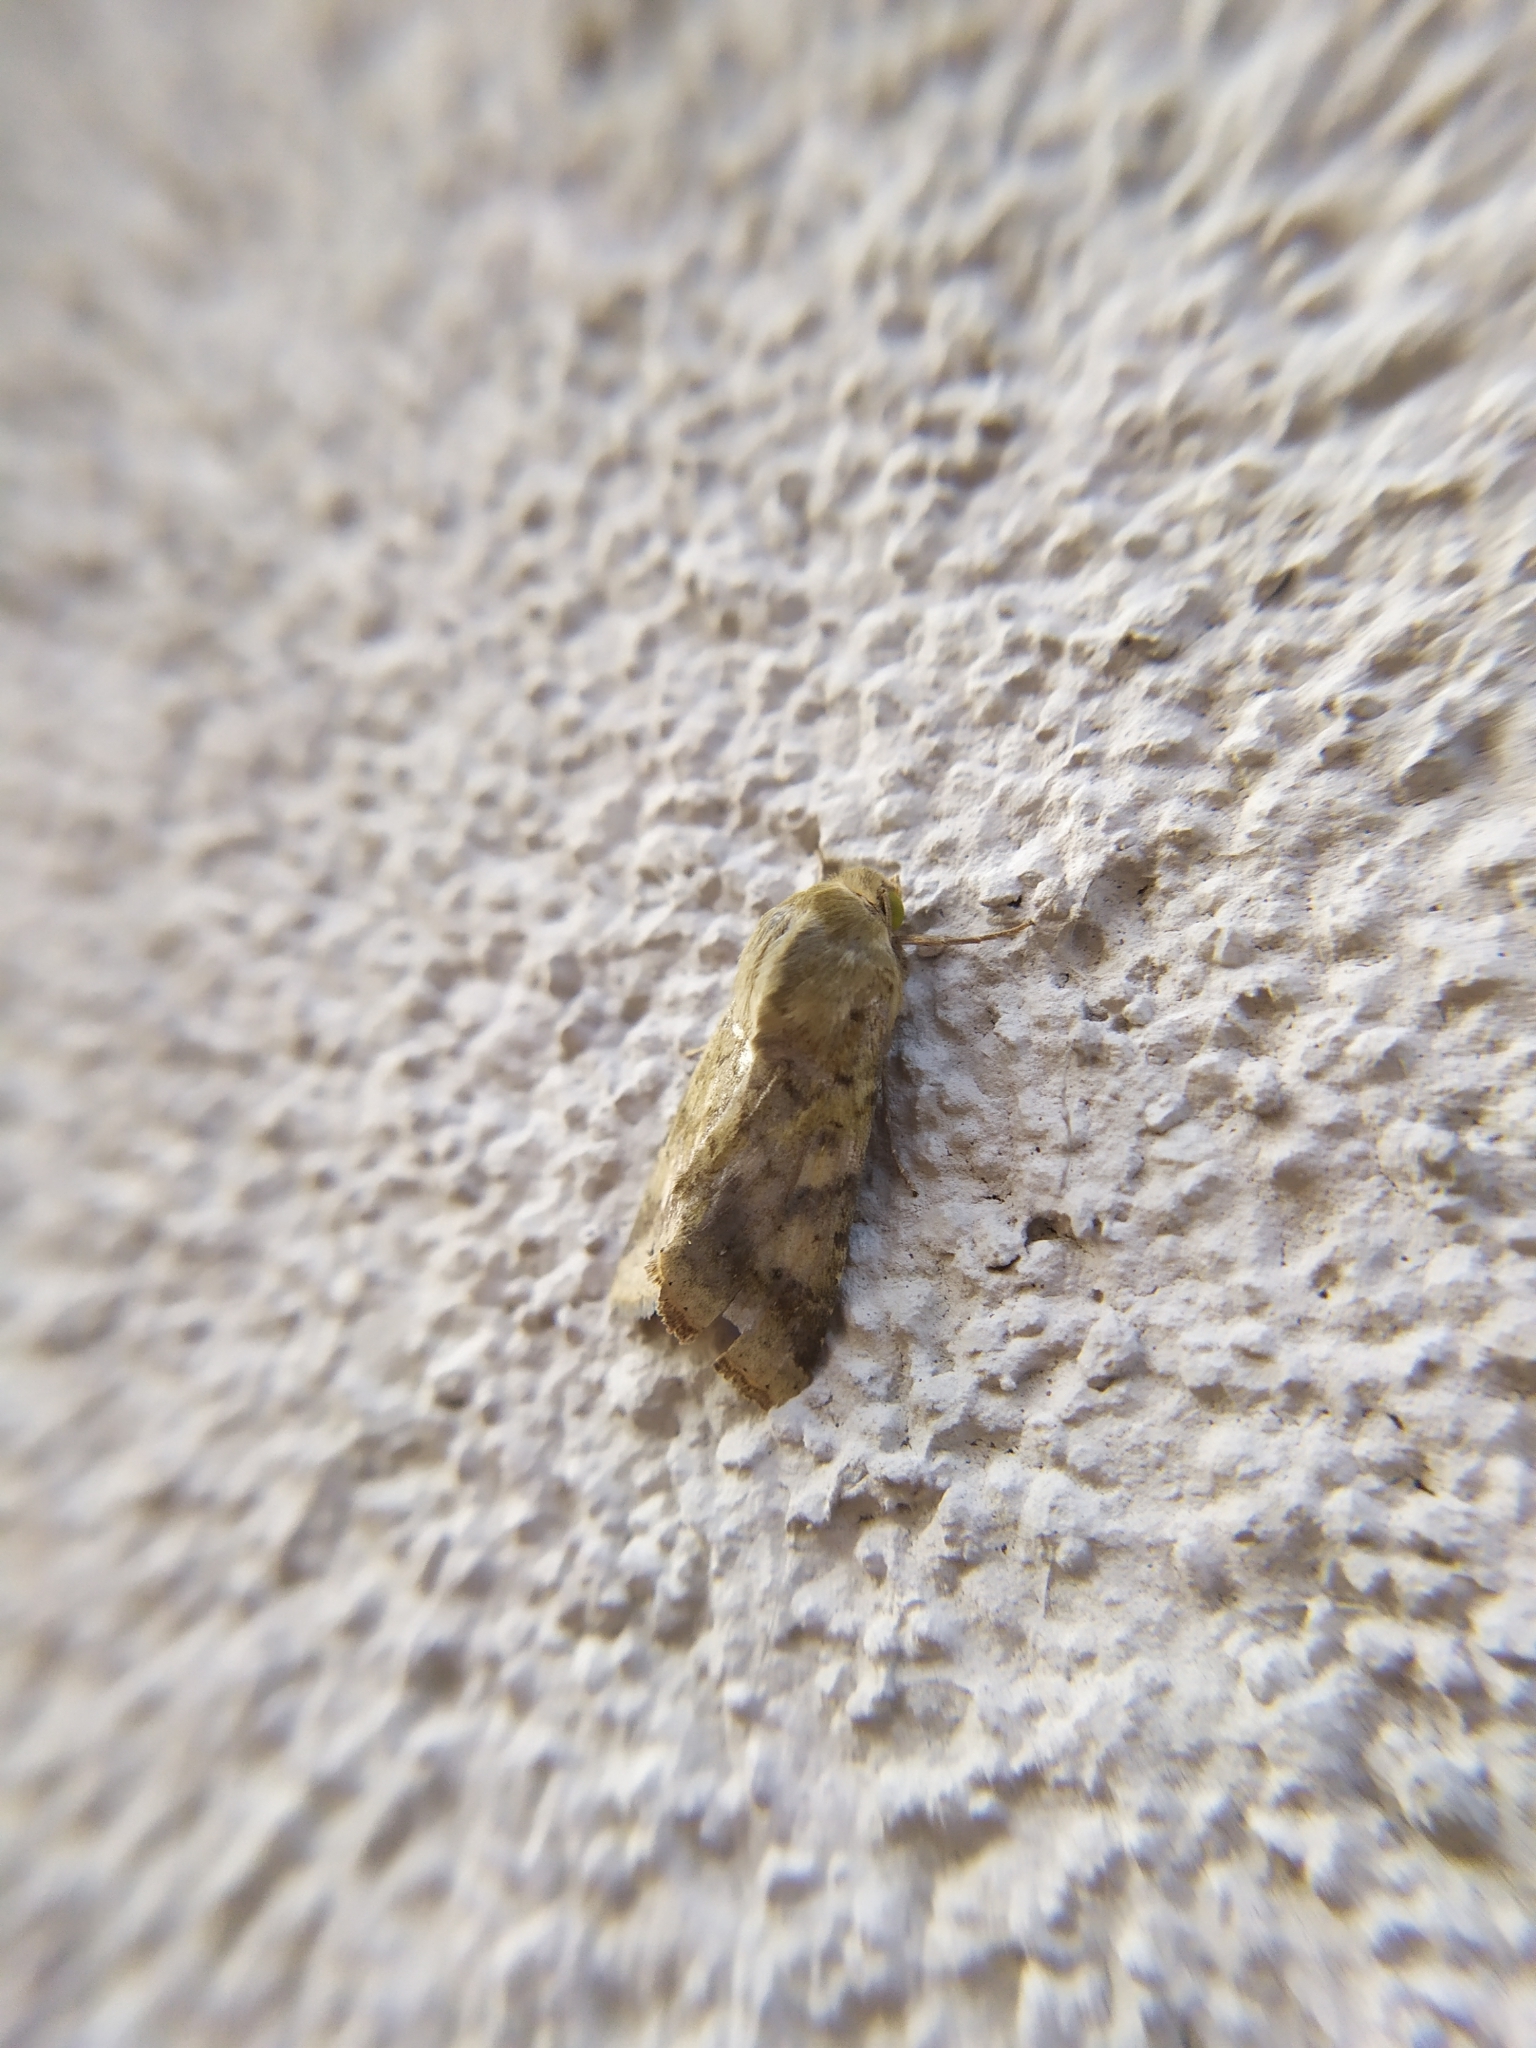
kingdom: Animalia
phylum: Arthropoda
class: Insecta
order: Lepidoptera
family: Noctuidae
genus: Helicoverpa
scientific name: Helicoverpa armigera
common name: Cotton bollworm
